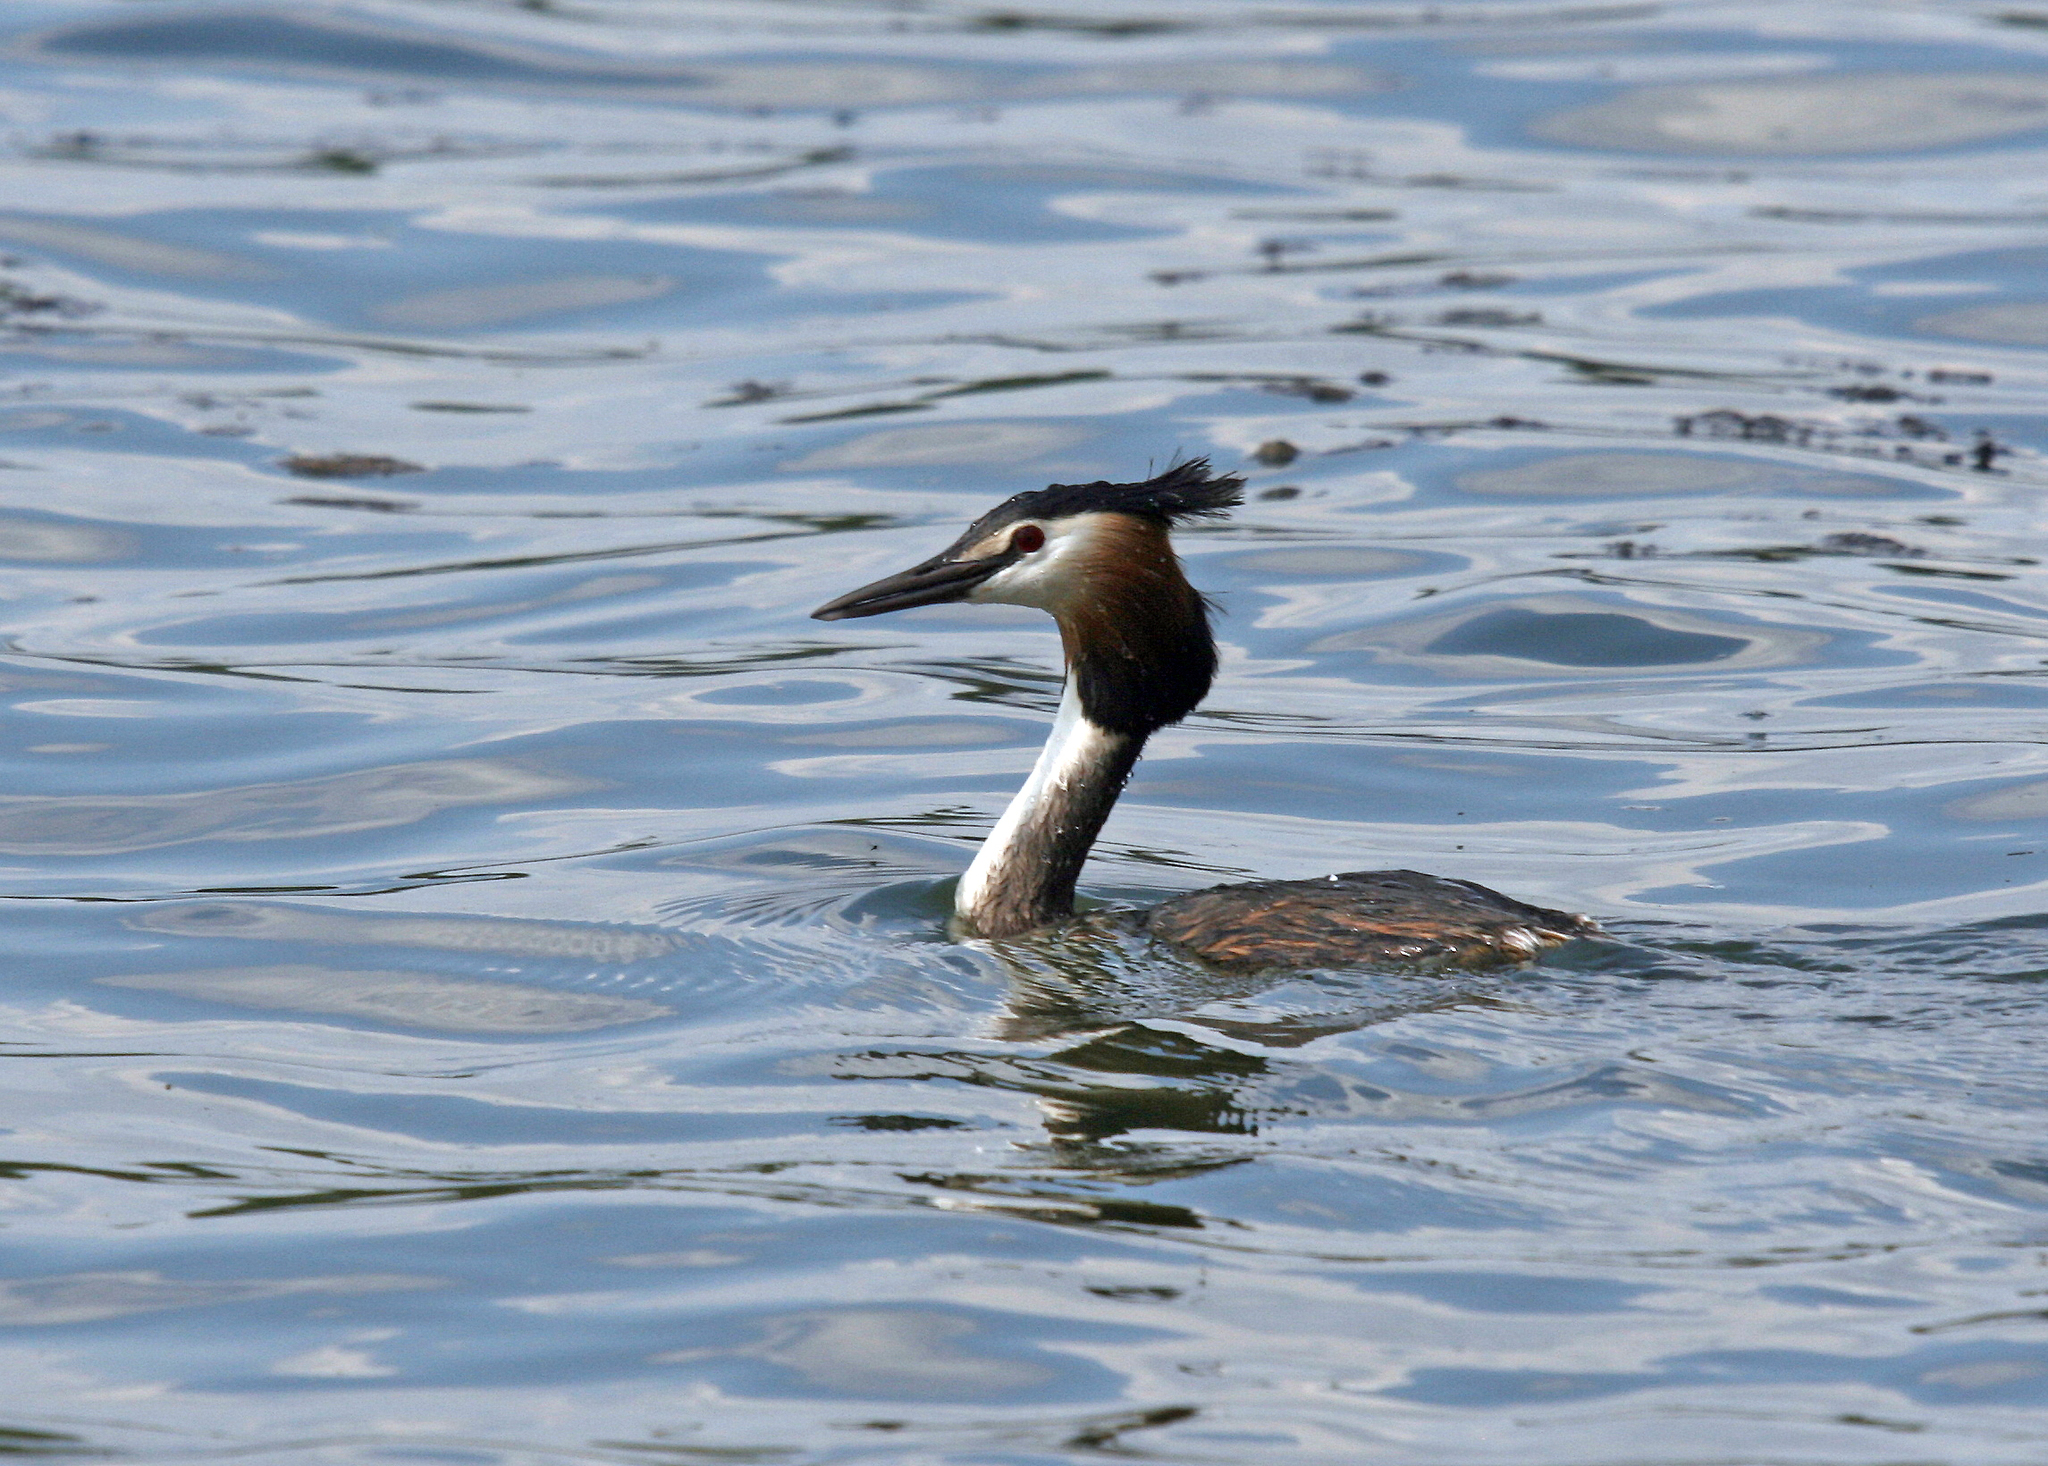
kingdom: Animalia
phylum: Chordata
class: Aves
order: Podicipediformes
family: Podicipedidae
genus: Podiceps
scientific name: Podiceps cristatus
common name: Great crested grebe
